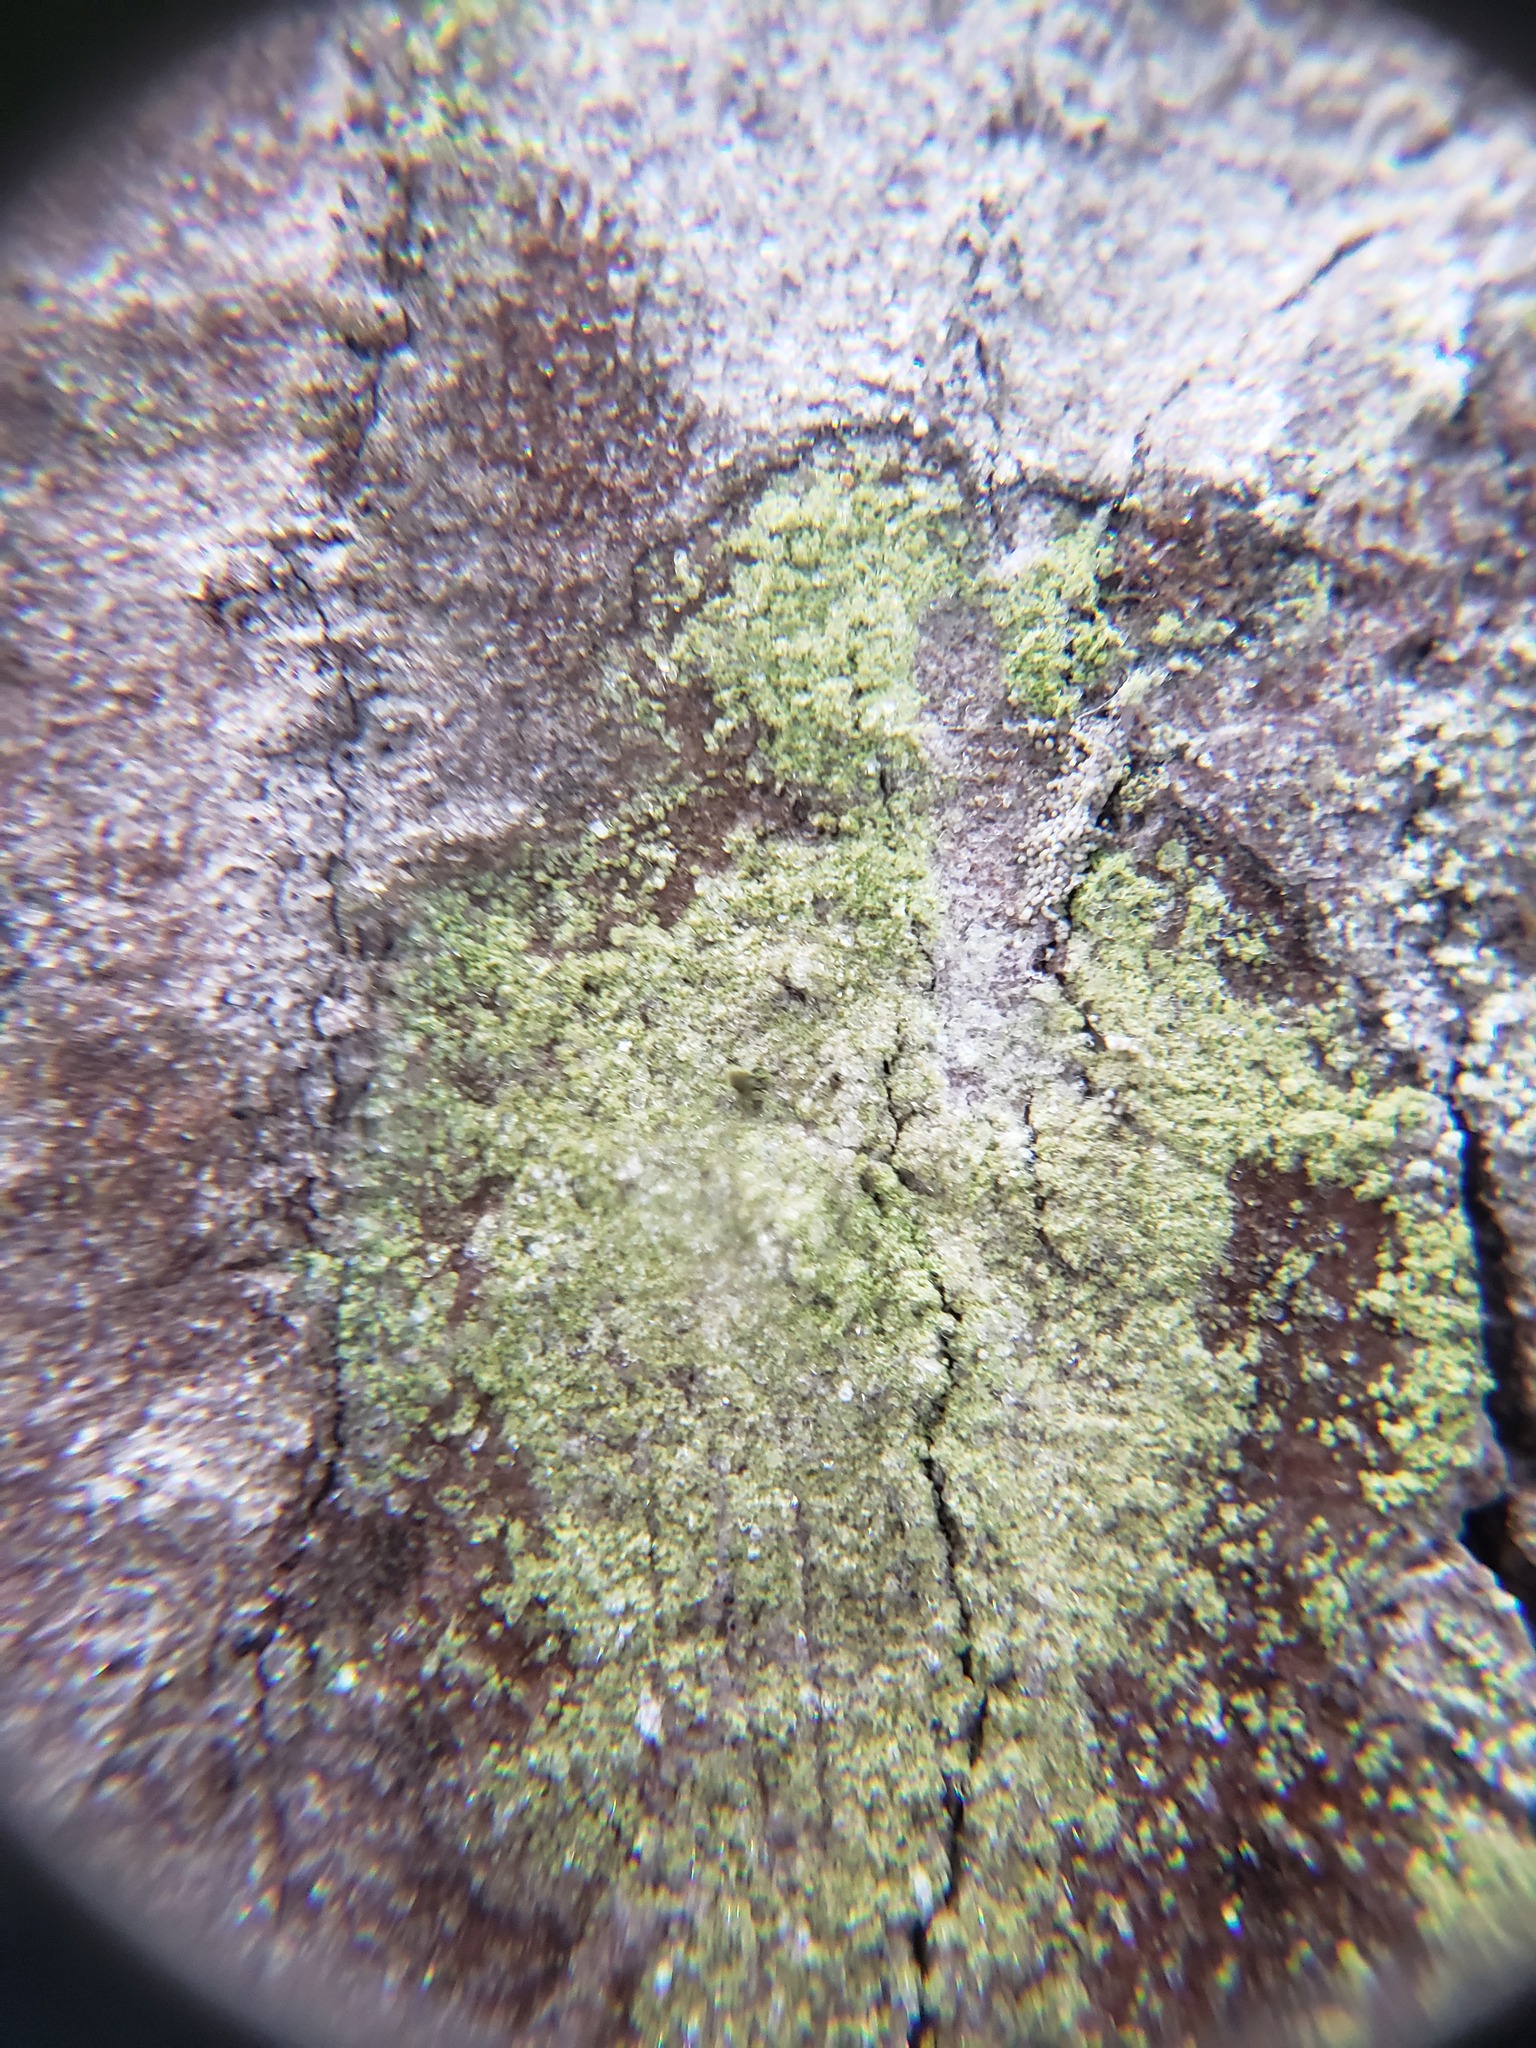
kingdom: Fungi
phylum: Ascomycota
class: Lecanoromycetes
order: Pertusariales
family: Pertusariaceae
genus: Verseghya
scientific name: Verseghya thysanophora
